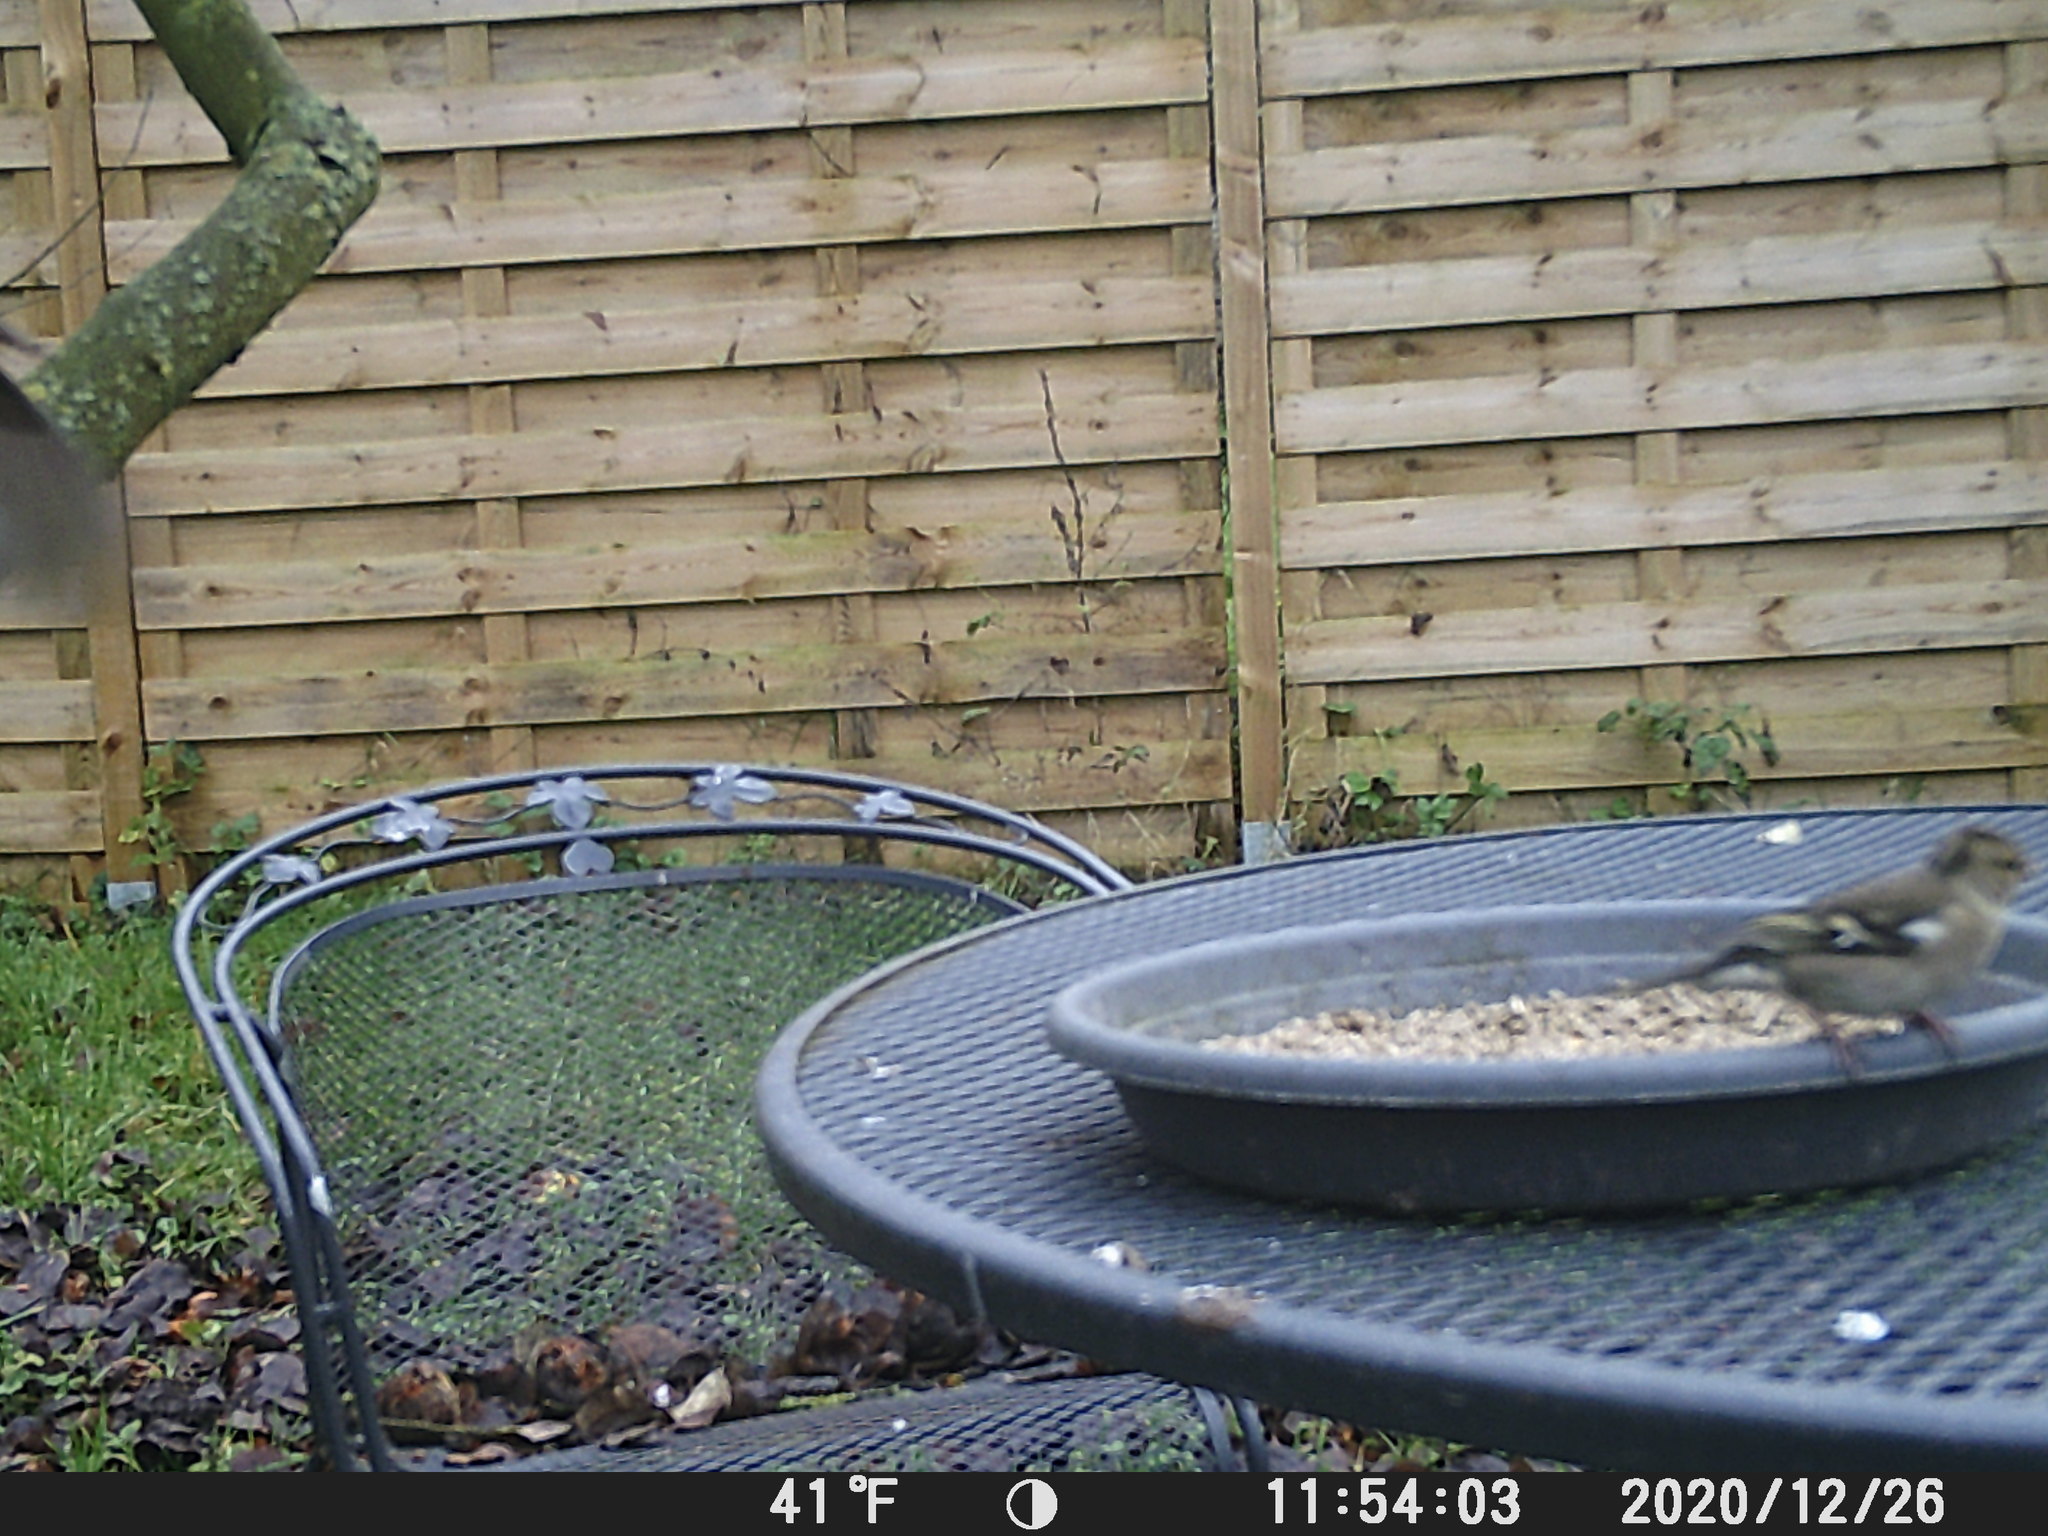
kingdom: Animalia
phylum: Chordata
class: Aves
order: Passeriformes
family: Fringillidae
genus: Fringilla
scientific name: Fringilla coelebs
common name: Common chaffinch
